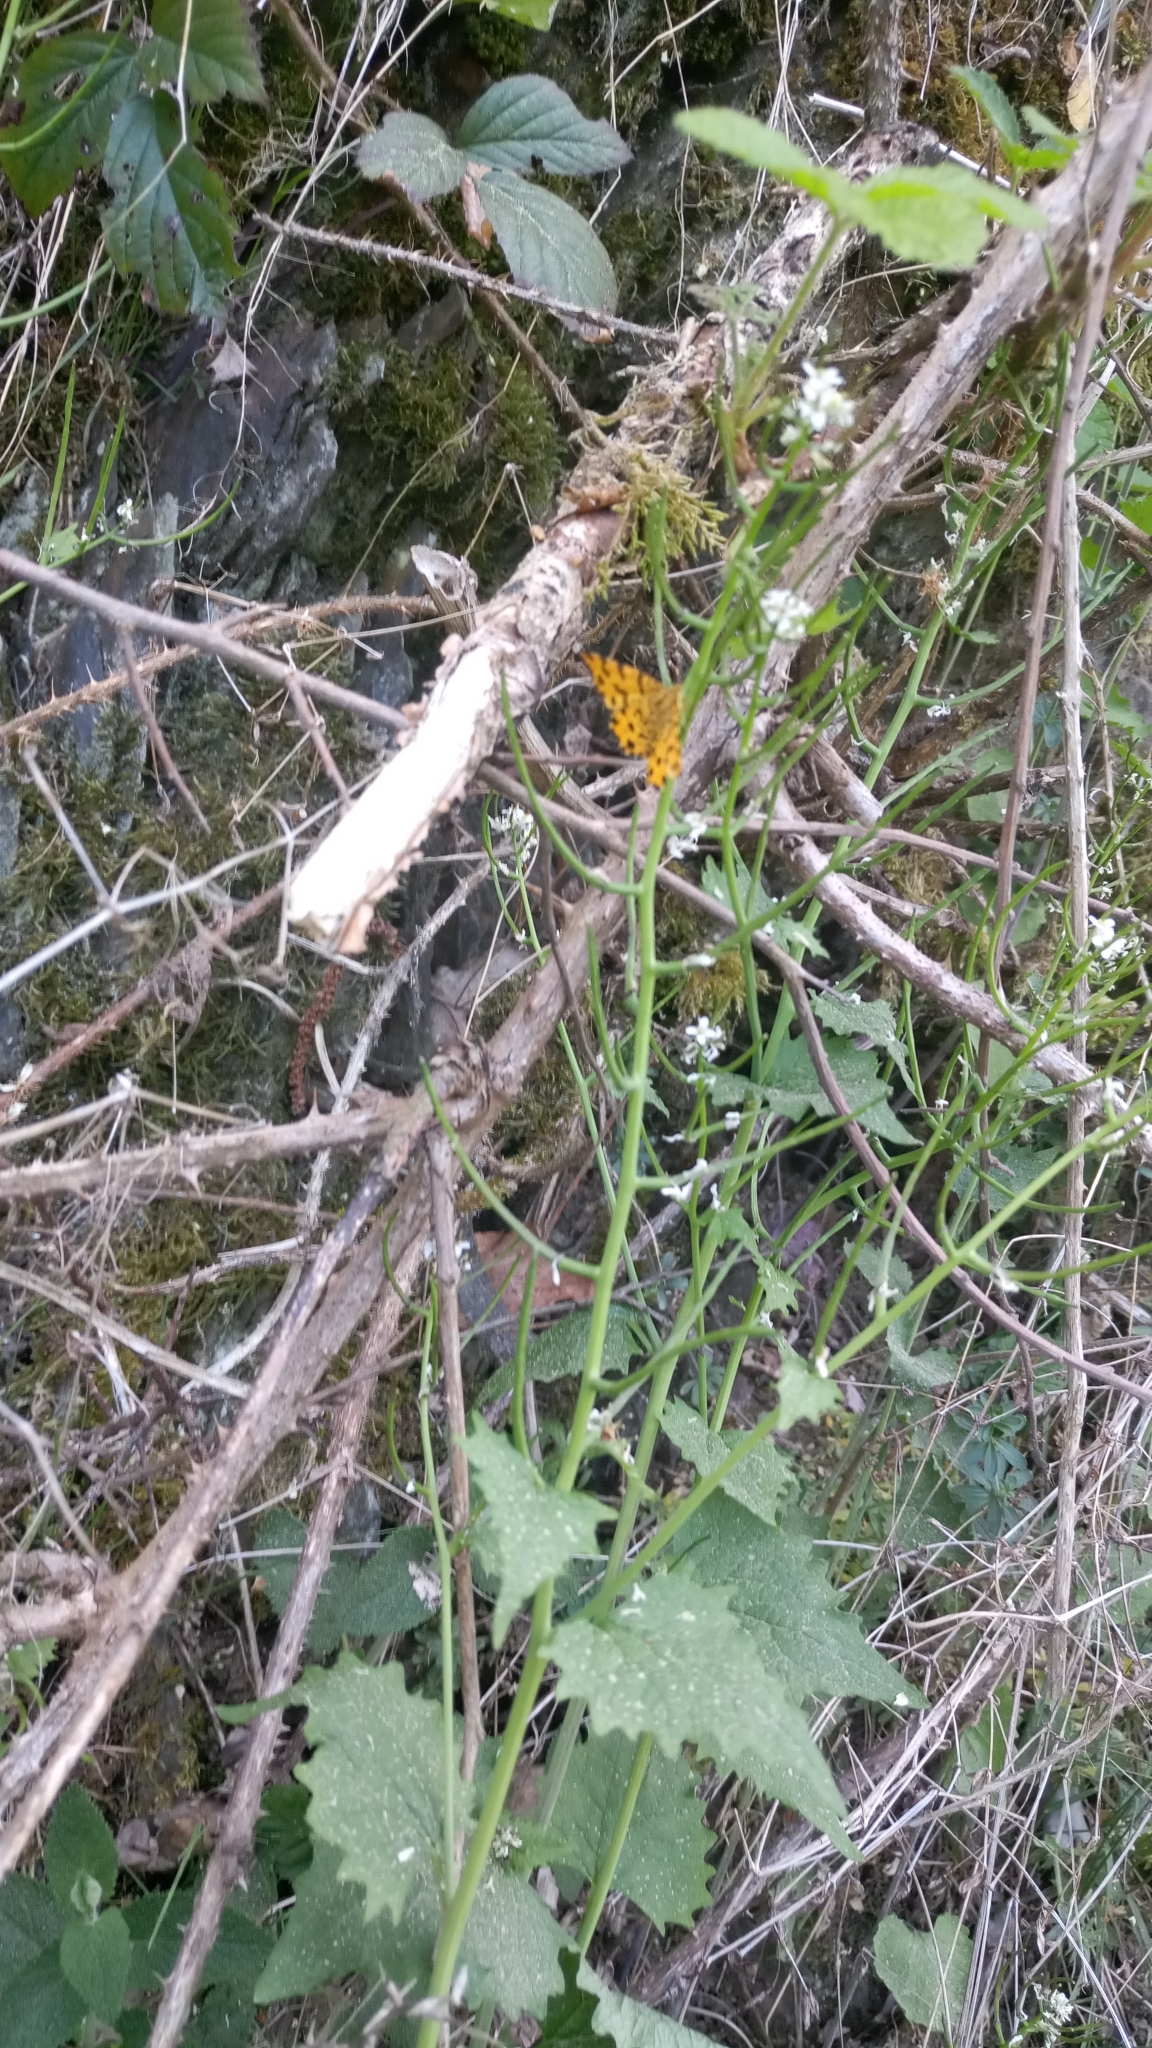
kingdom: Animalia
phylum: Arthropoda
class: Insecta
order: Lepidoptera
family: Geometridae
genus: Pseudopanthera
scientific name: Pseudopanthera macularia
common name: Speckled yellow
